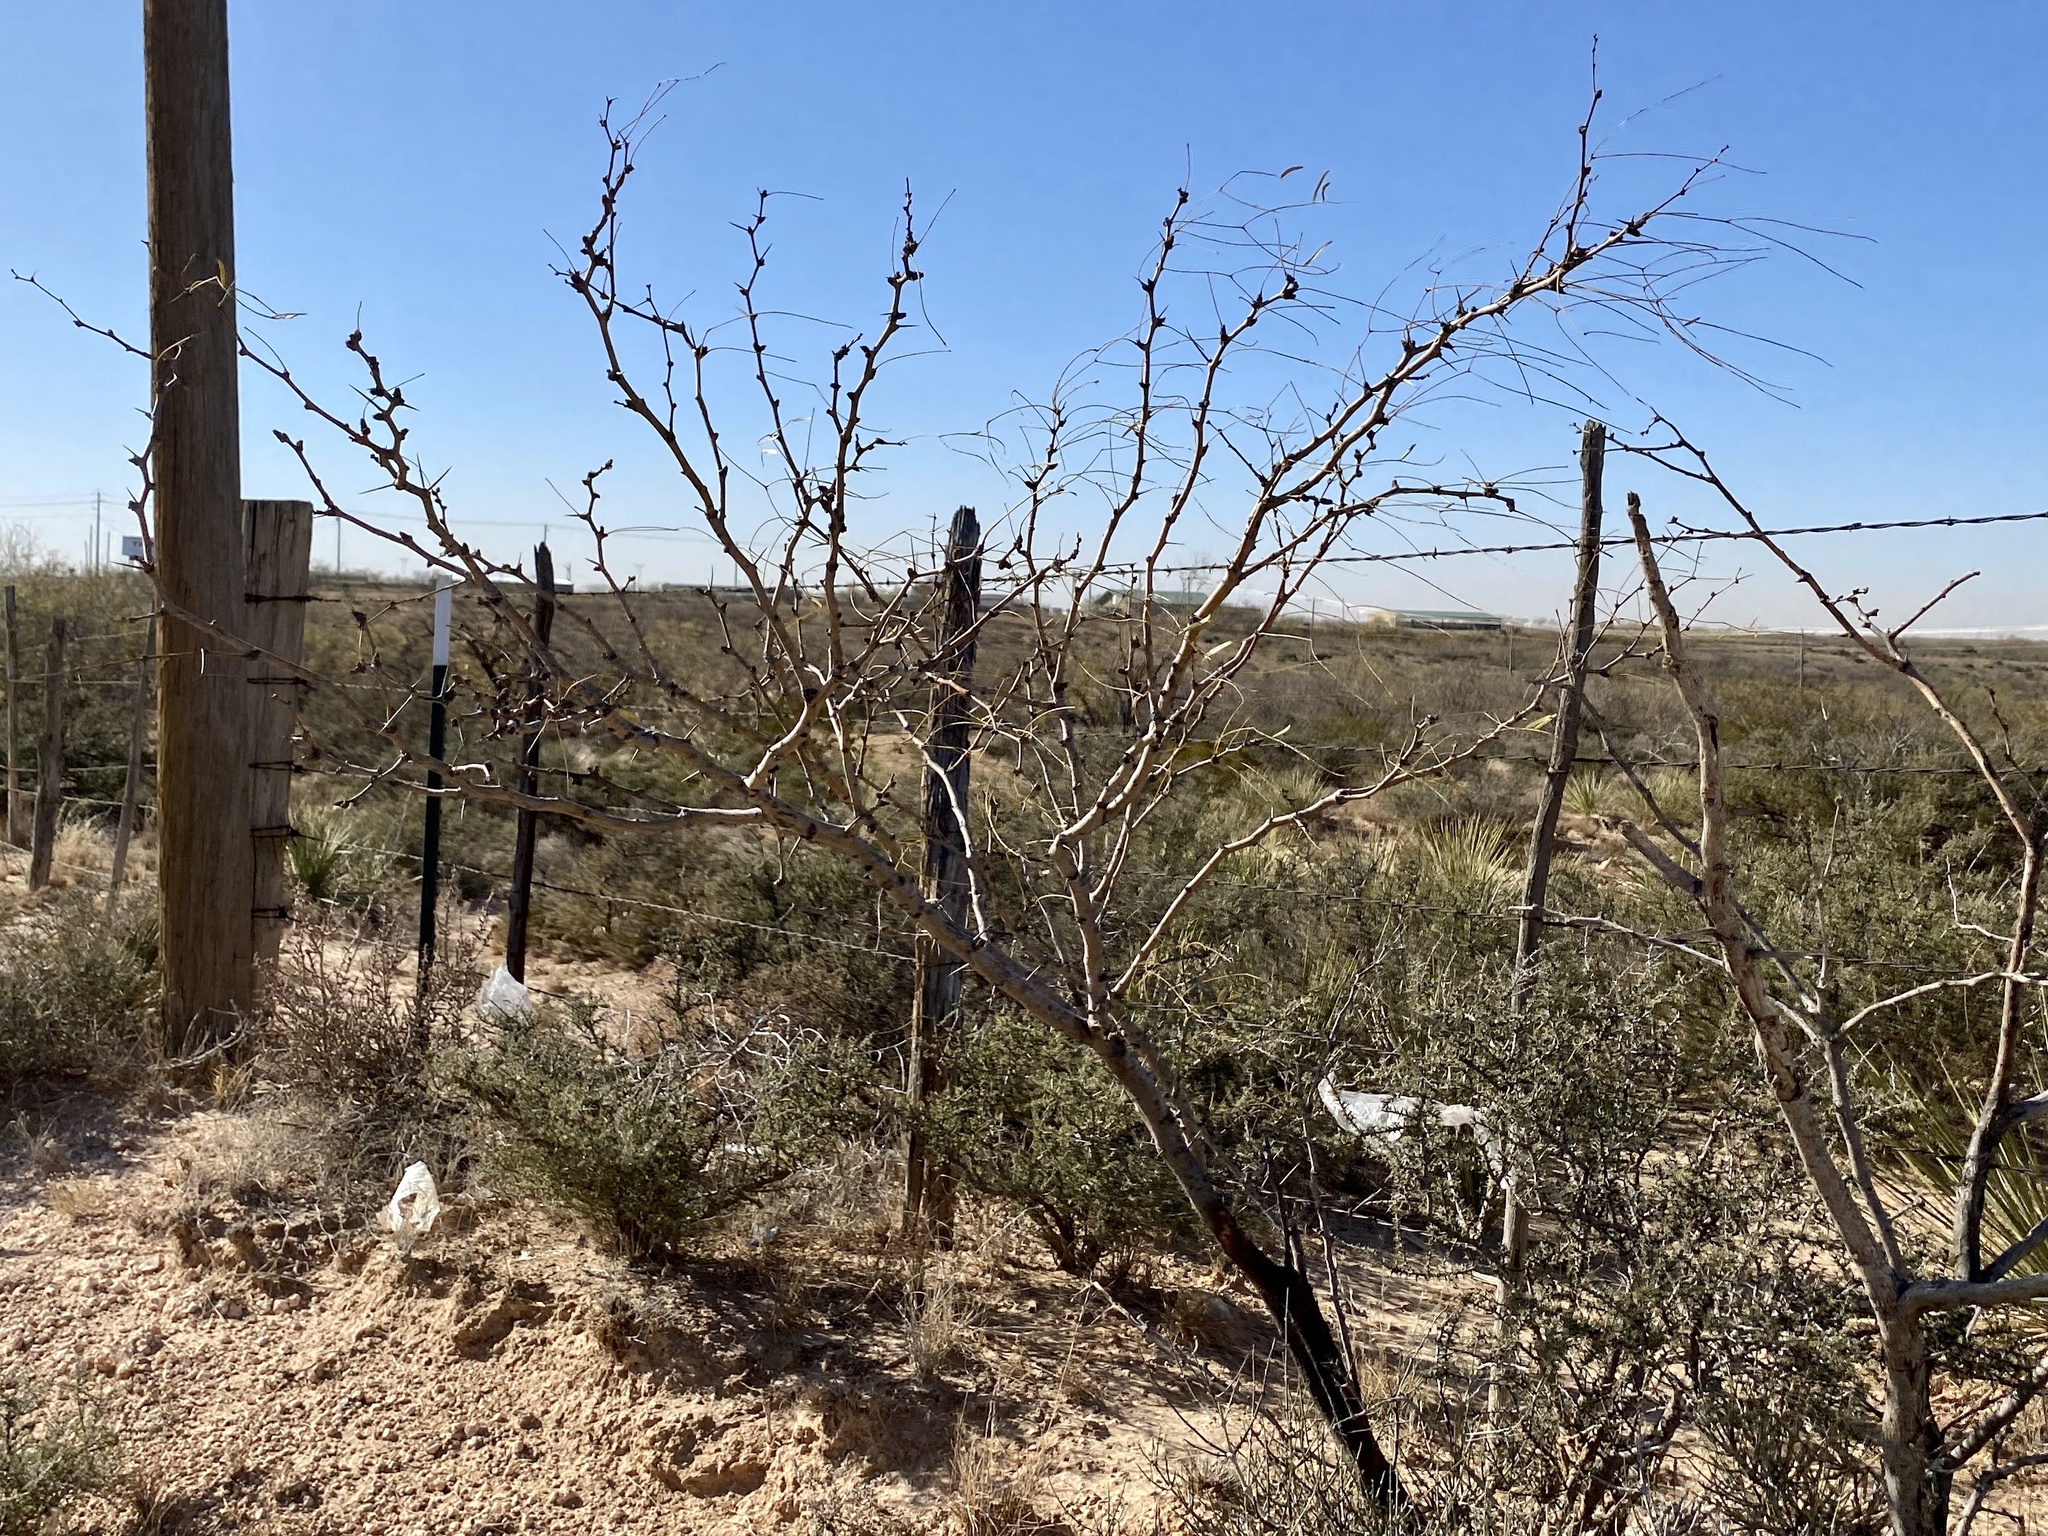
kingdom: Plantae
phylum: Tracheophyta
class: Magnoliopsida
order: Fabales
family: Fabaceae
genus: Prosopis
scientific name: Prosopis glandulosa
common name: Honey mesquite
